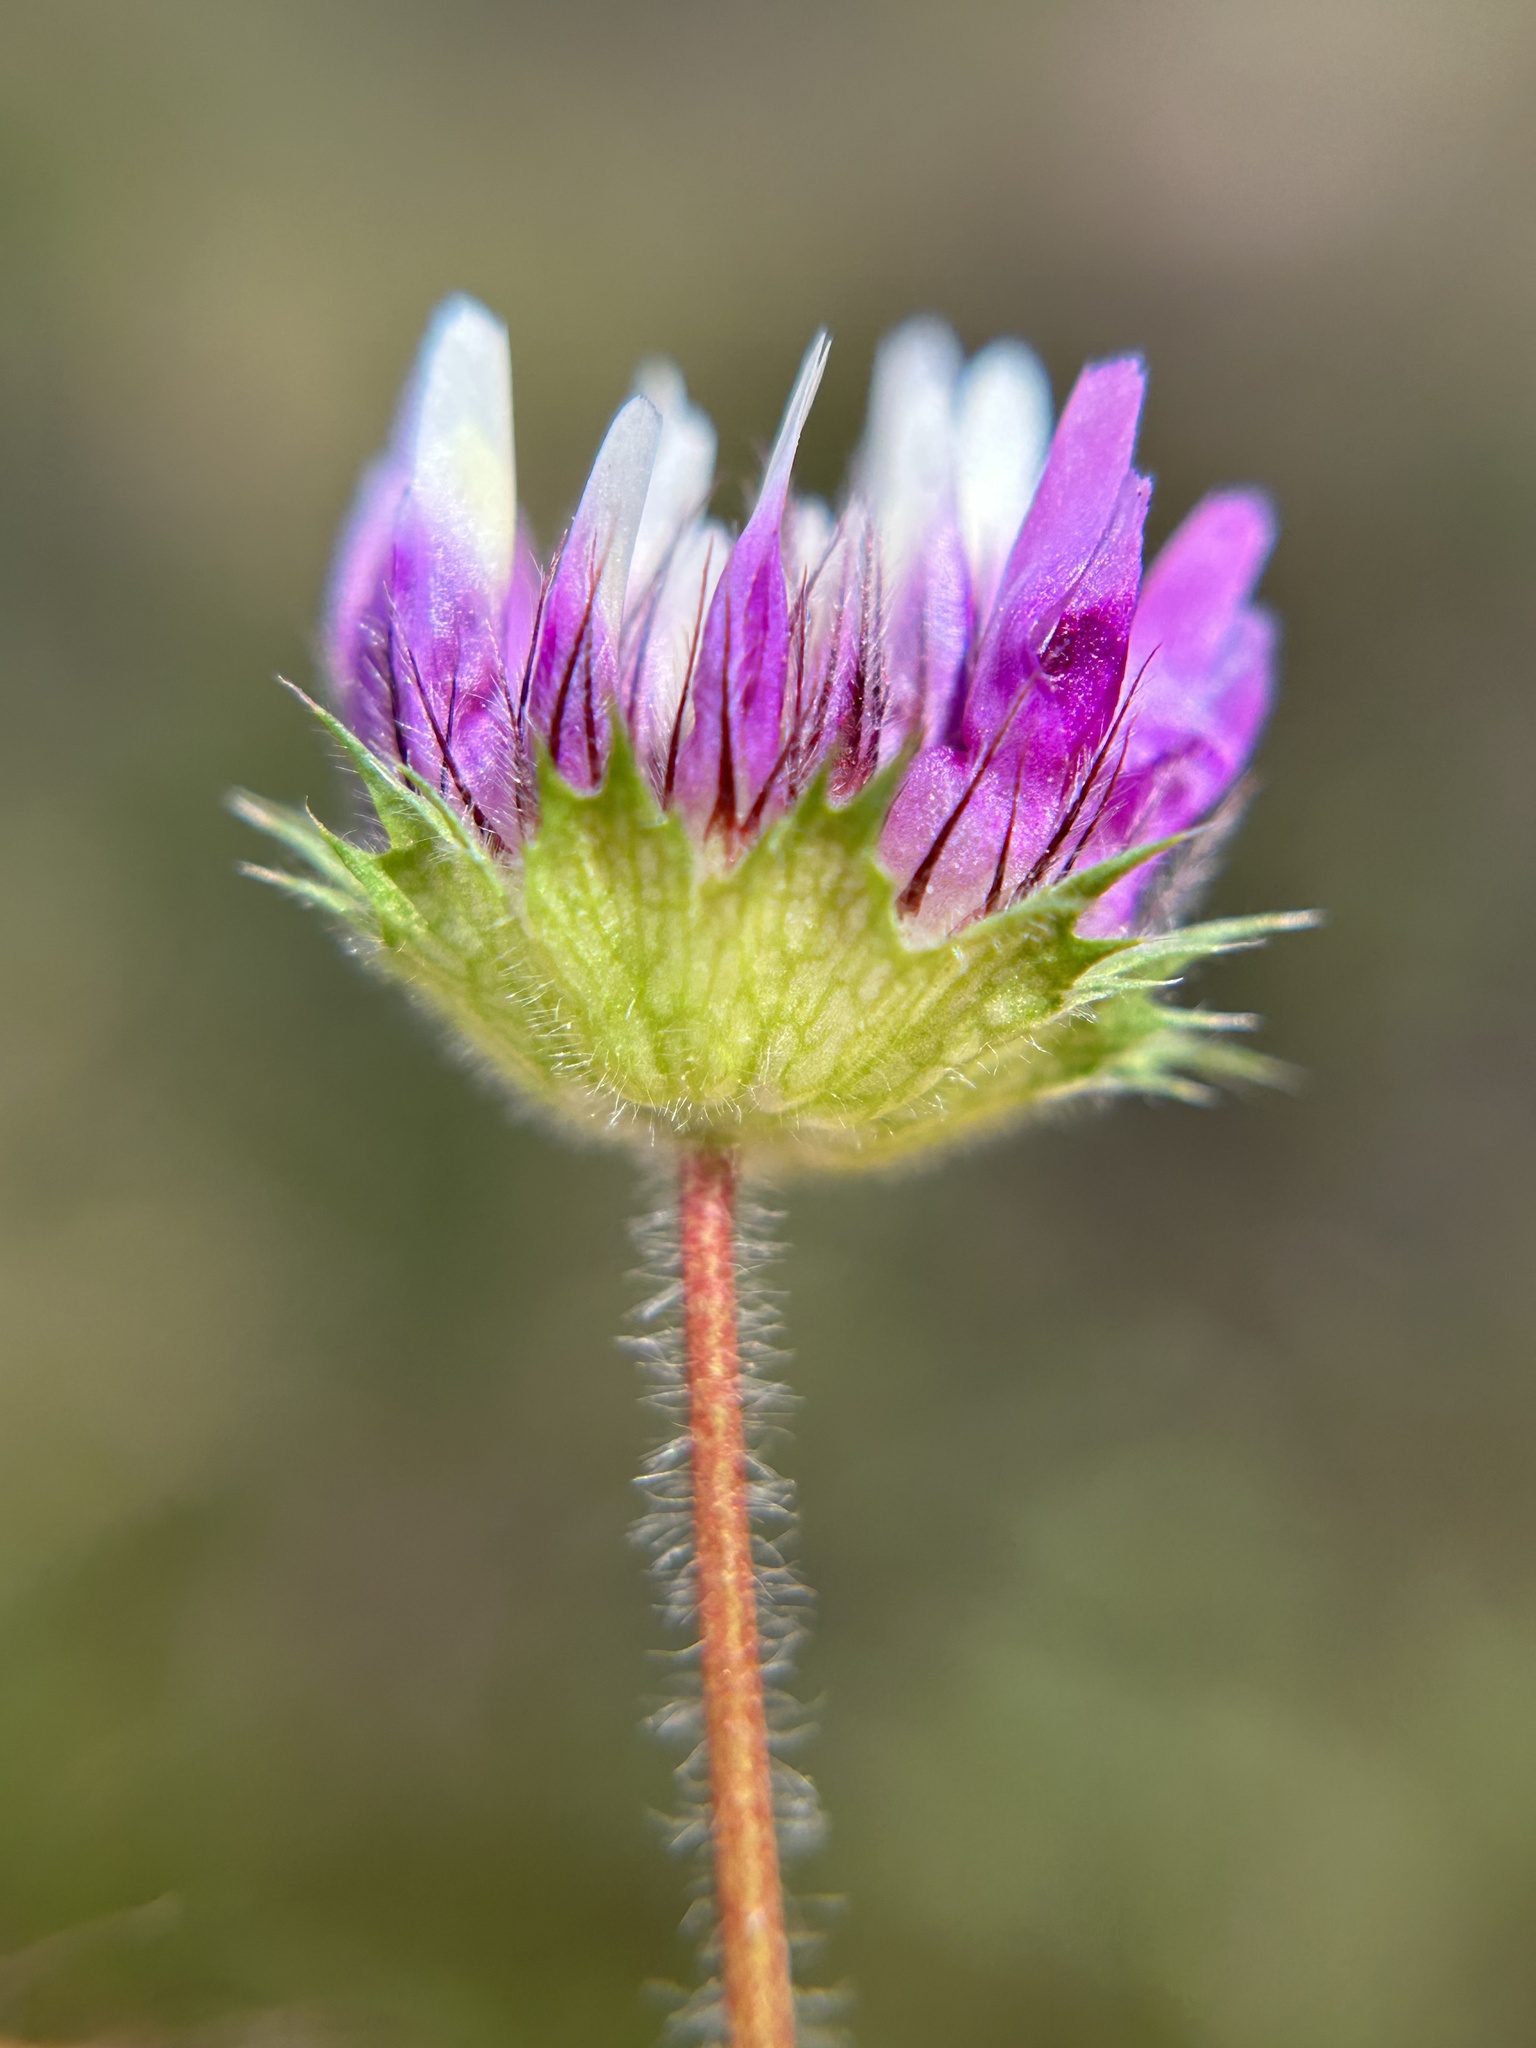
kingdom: Plantae
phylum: Tracheophyta
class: Magnoliopsida
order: Fabales
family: Fabaceae
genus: Trifolium
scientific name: Trifolium barbigerum
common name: Bearded clover
